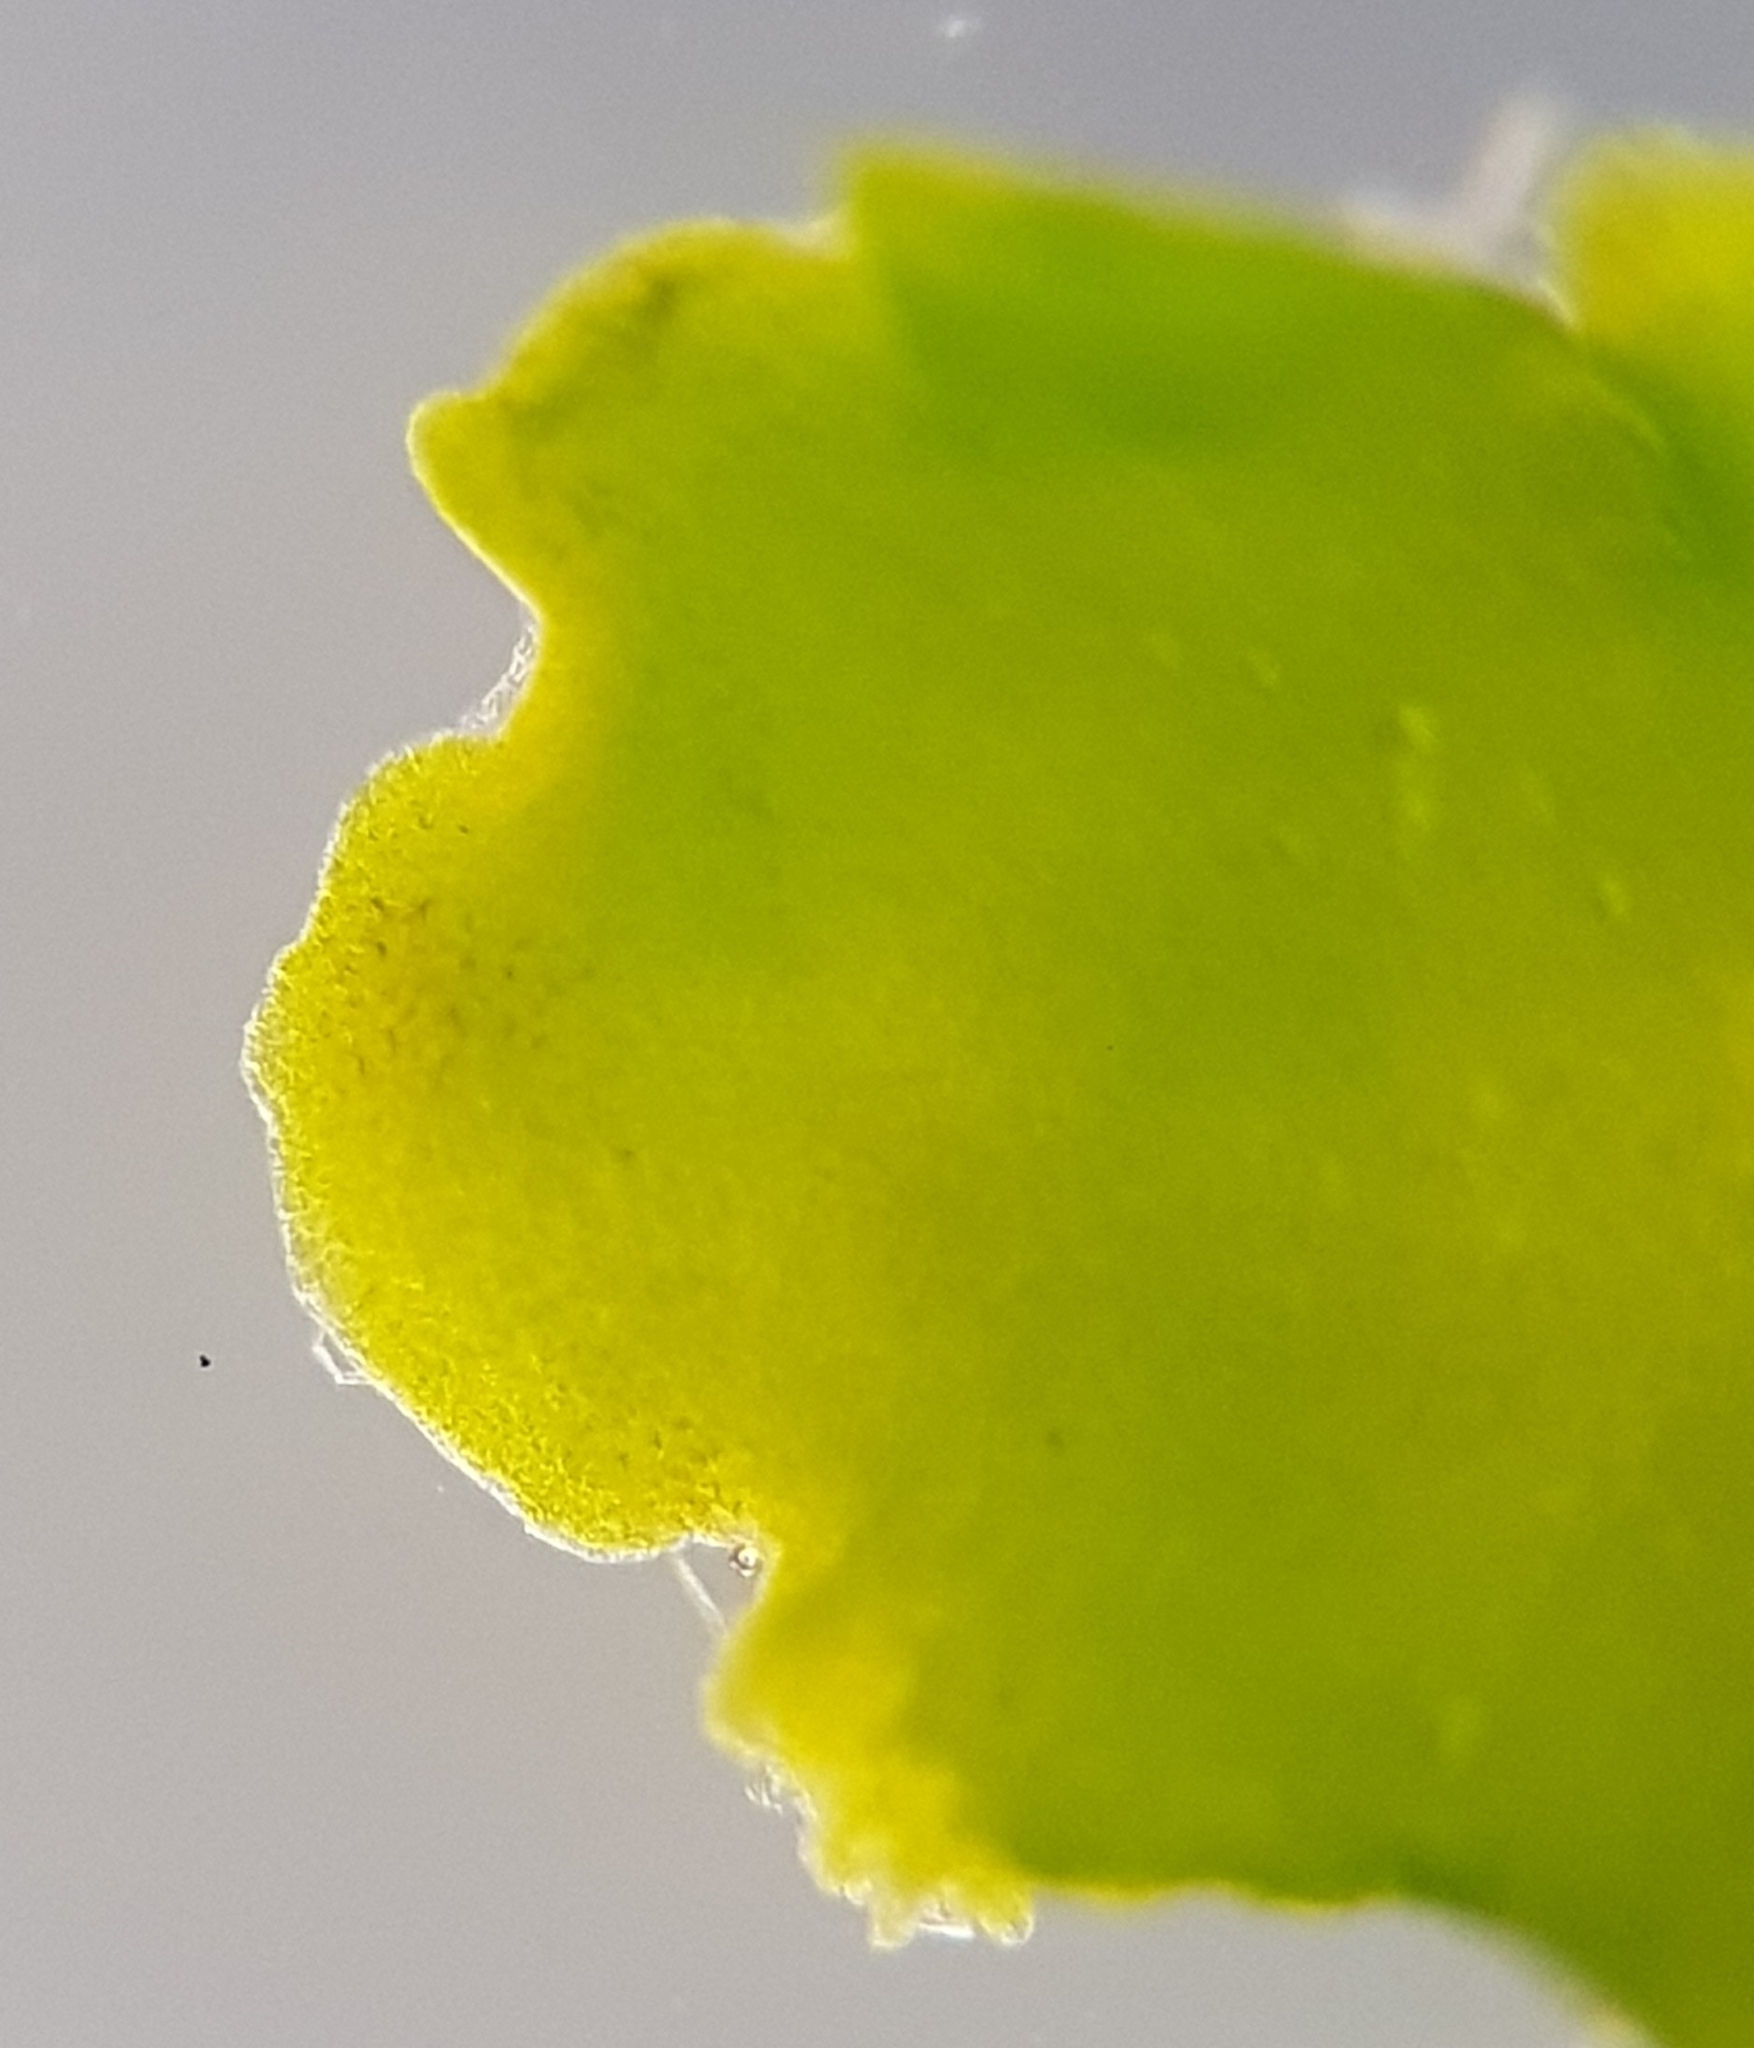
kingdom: Plantae
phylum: Marchantiophyta
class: Jungermanniopsida
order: Metzgeriales
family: Aneuraceae
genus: Aneura
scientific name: Aneura pinguis
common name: Common greasewort
